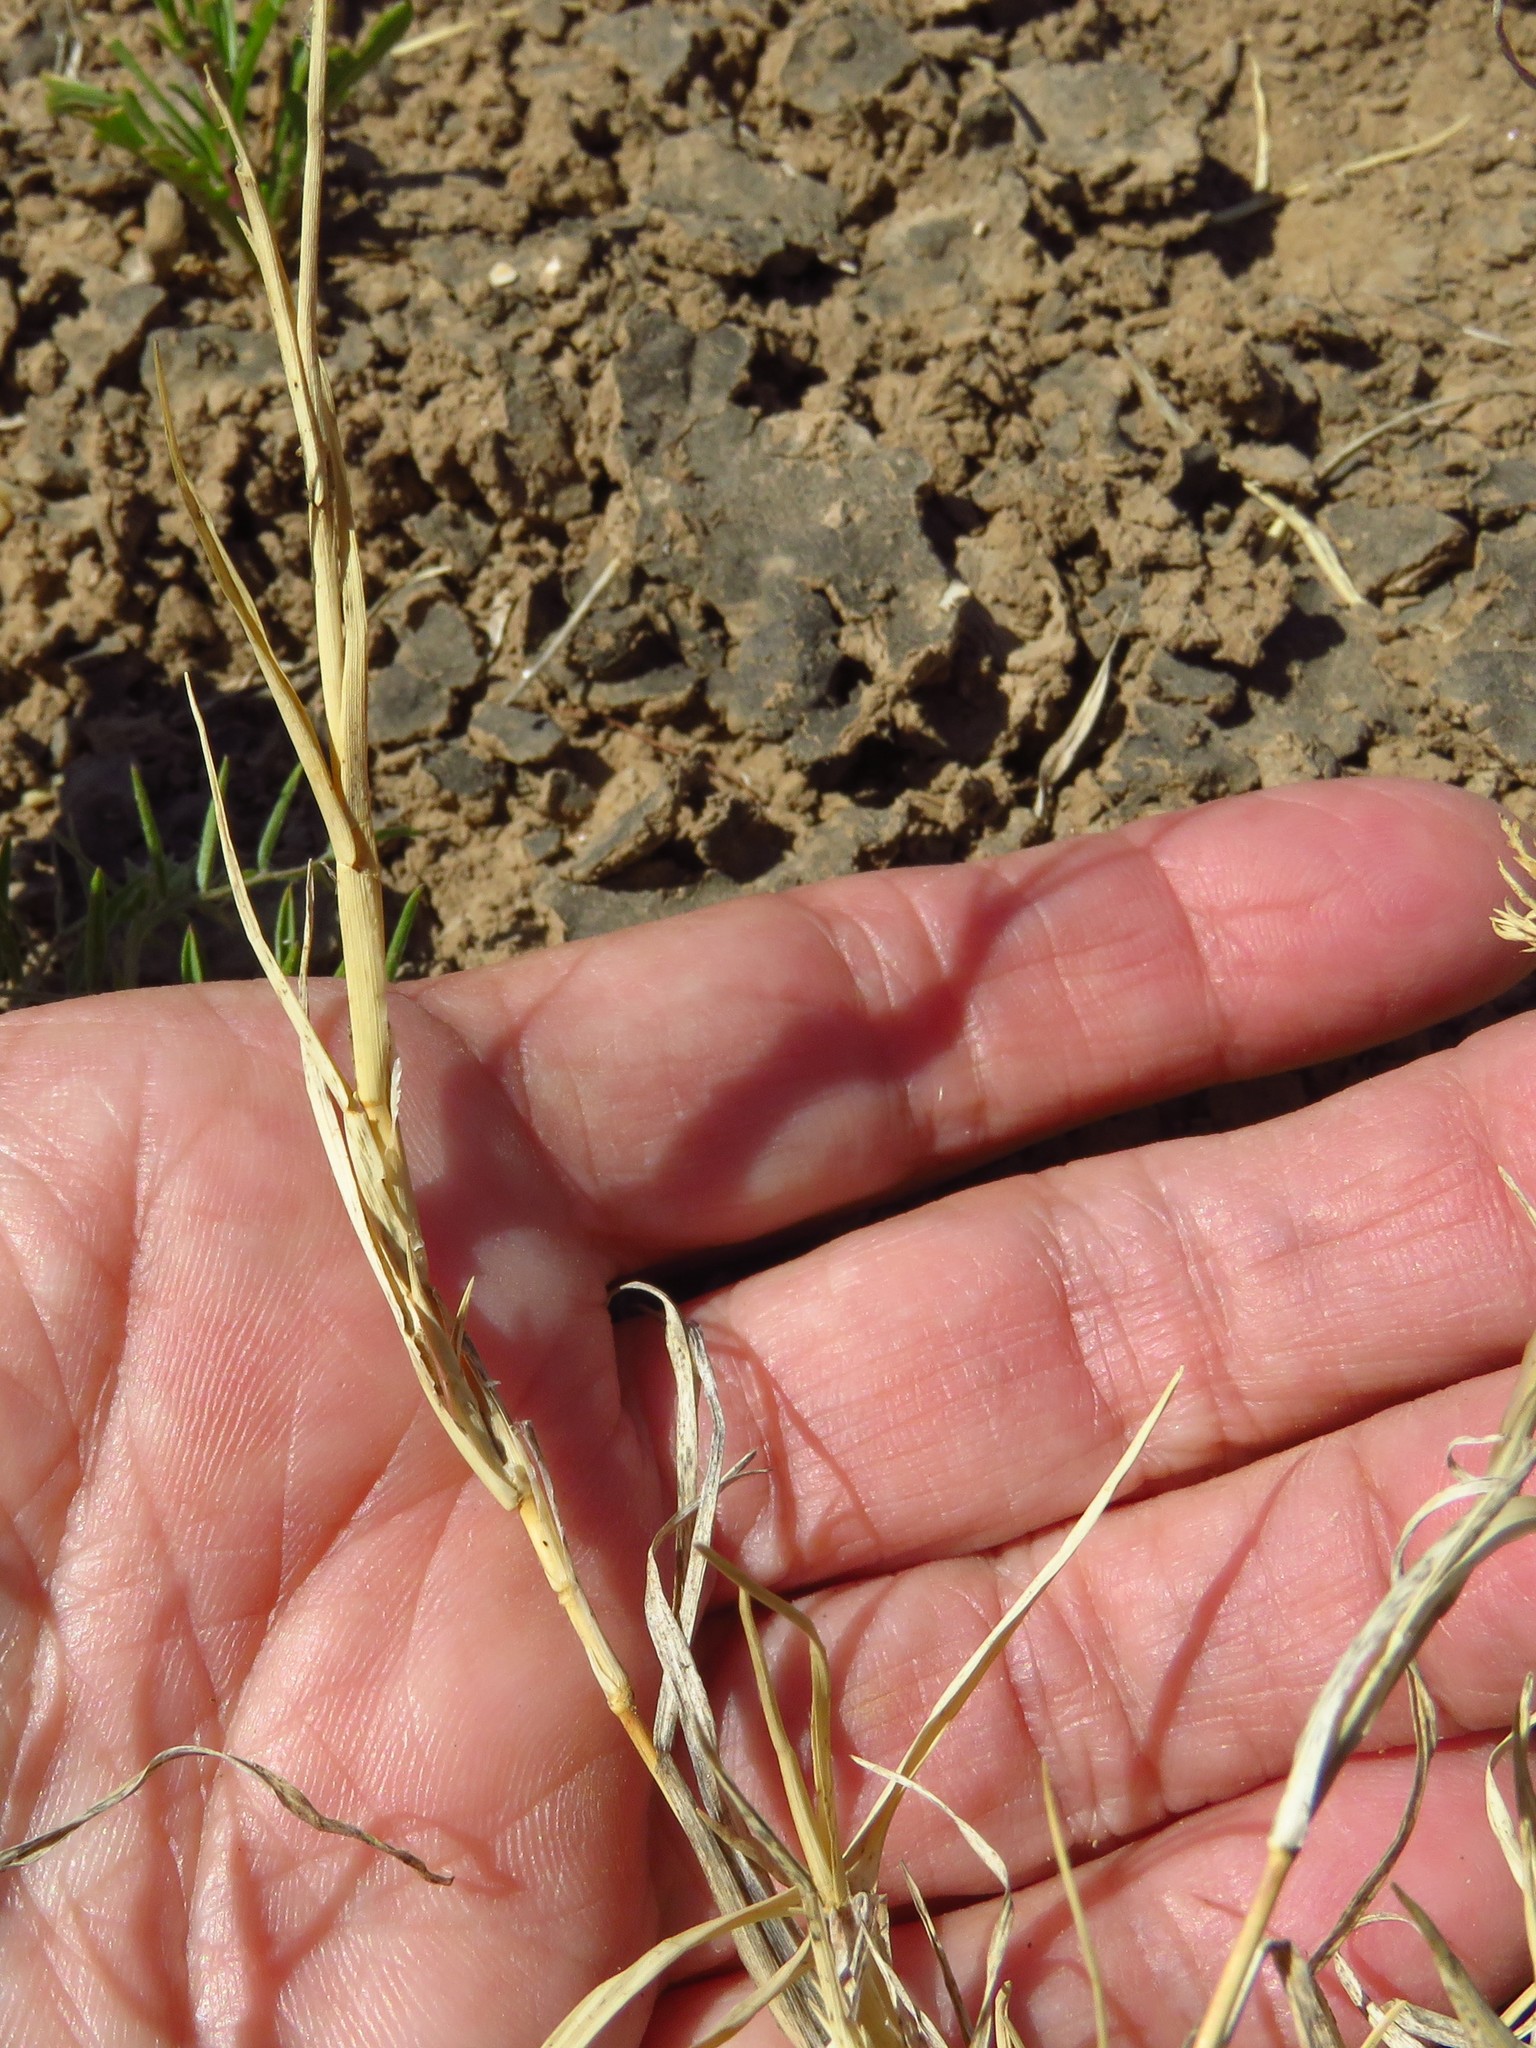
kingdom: Plantae
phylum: Tracheophyta
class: Liliopsida
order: Poales
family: Poaceae
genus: Cynodon
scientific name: Cynodon dactylon
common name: Bermuda grass
